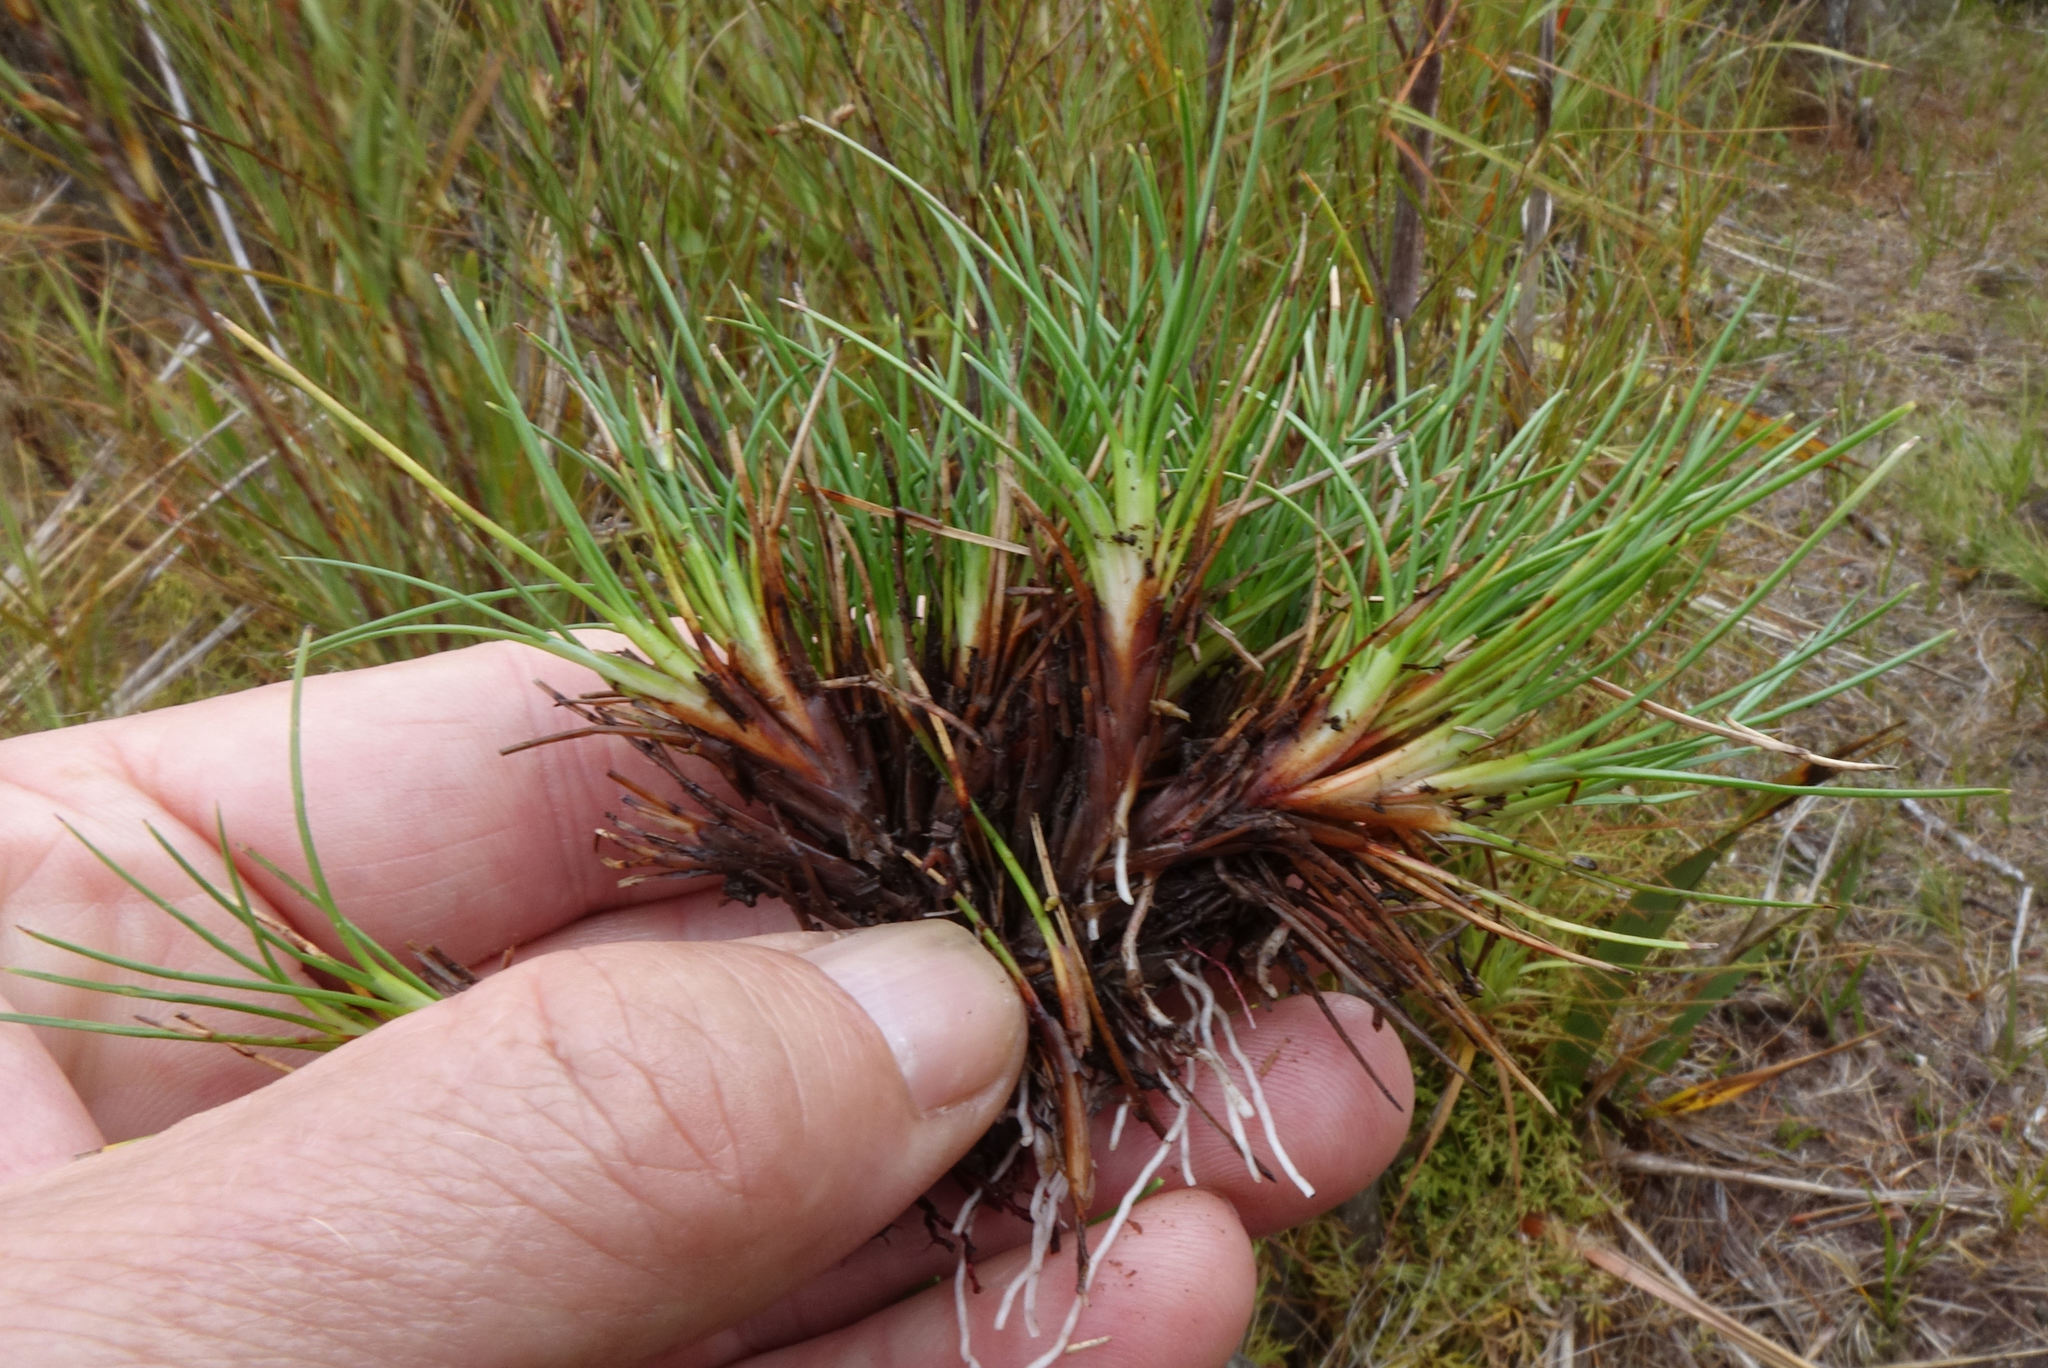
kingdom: Plantae
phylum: Tracheophyta
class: Liliopsida
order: Poales
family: Cyperaceae
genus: Oreobolus
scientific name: Oreobolus strictus
